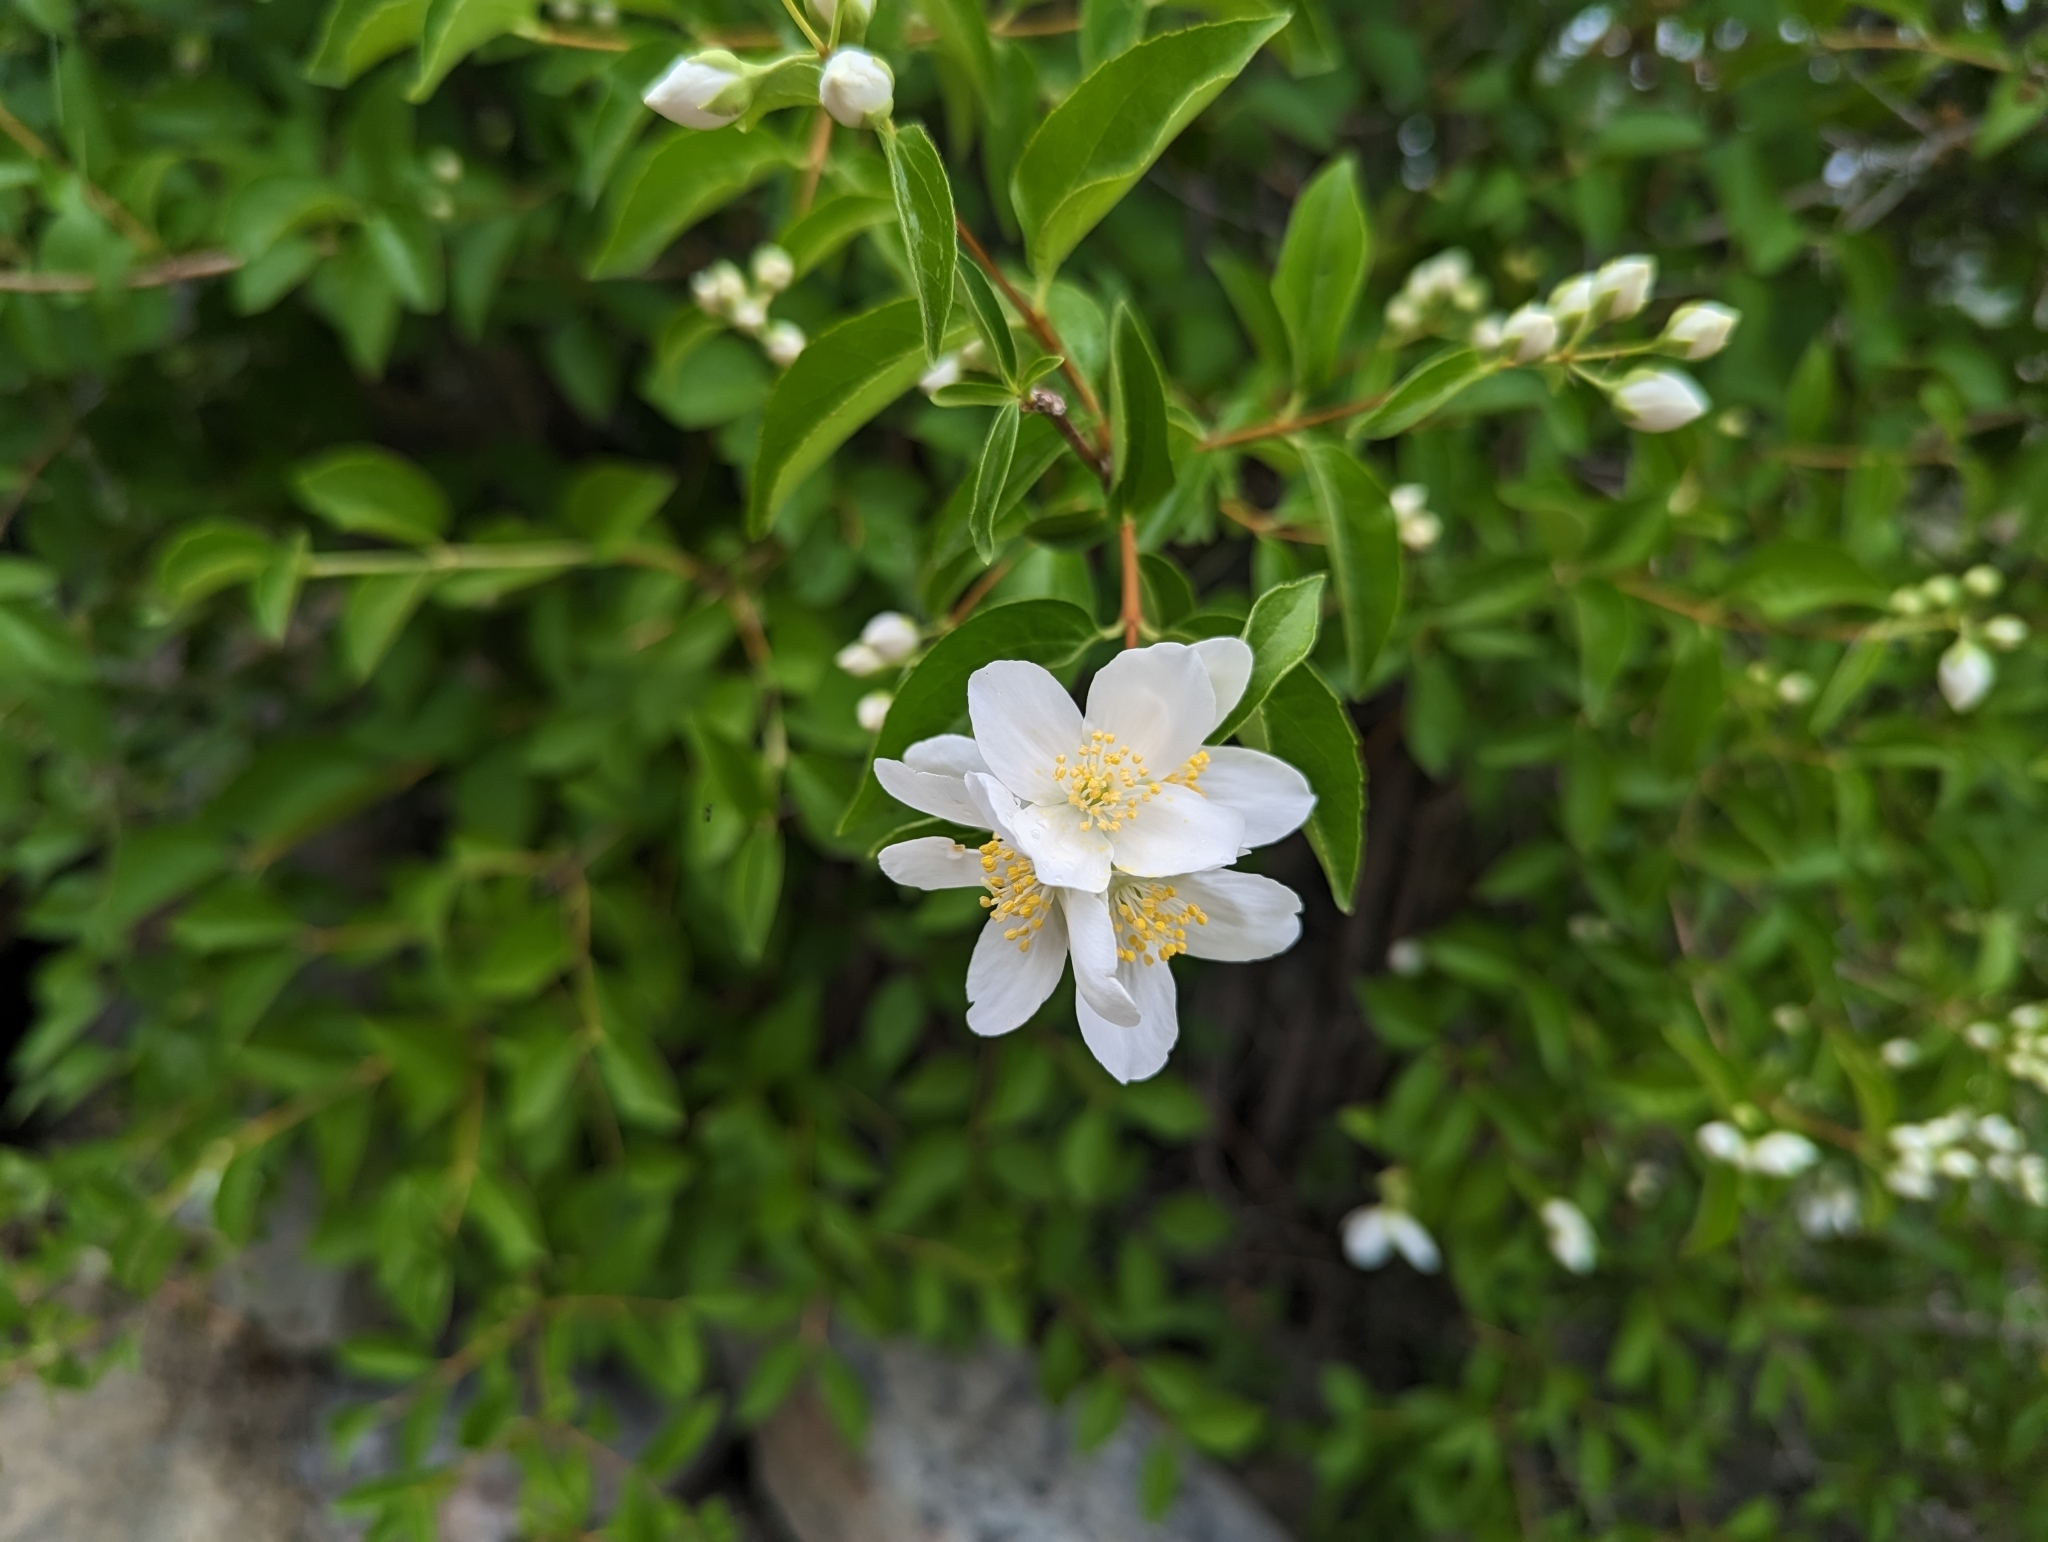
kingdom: Plantae
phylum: Tracheophyta
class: Magnoliopsida
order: Cornales
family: Hydrangeaceae
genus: Philadelphus
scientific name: Philadelphus lewisii
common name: Lewis's mock orange
